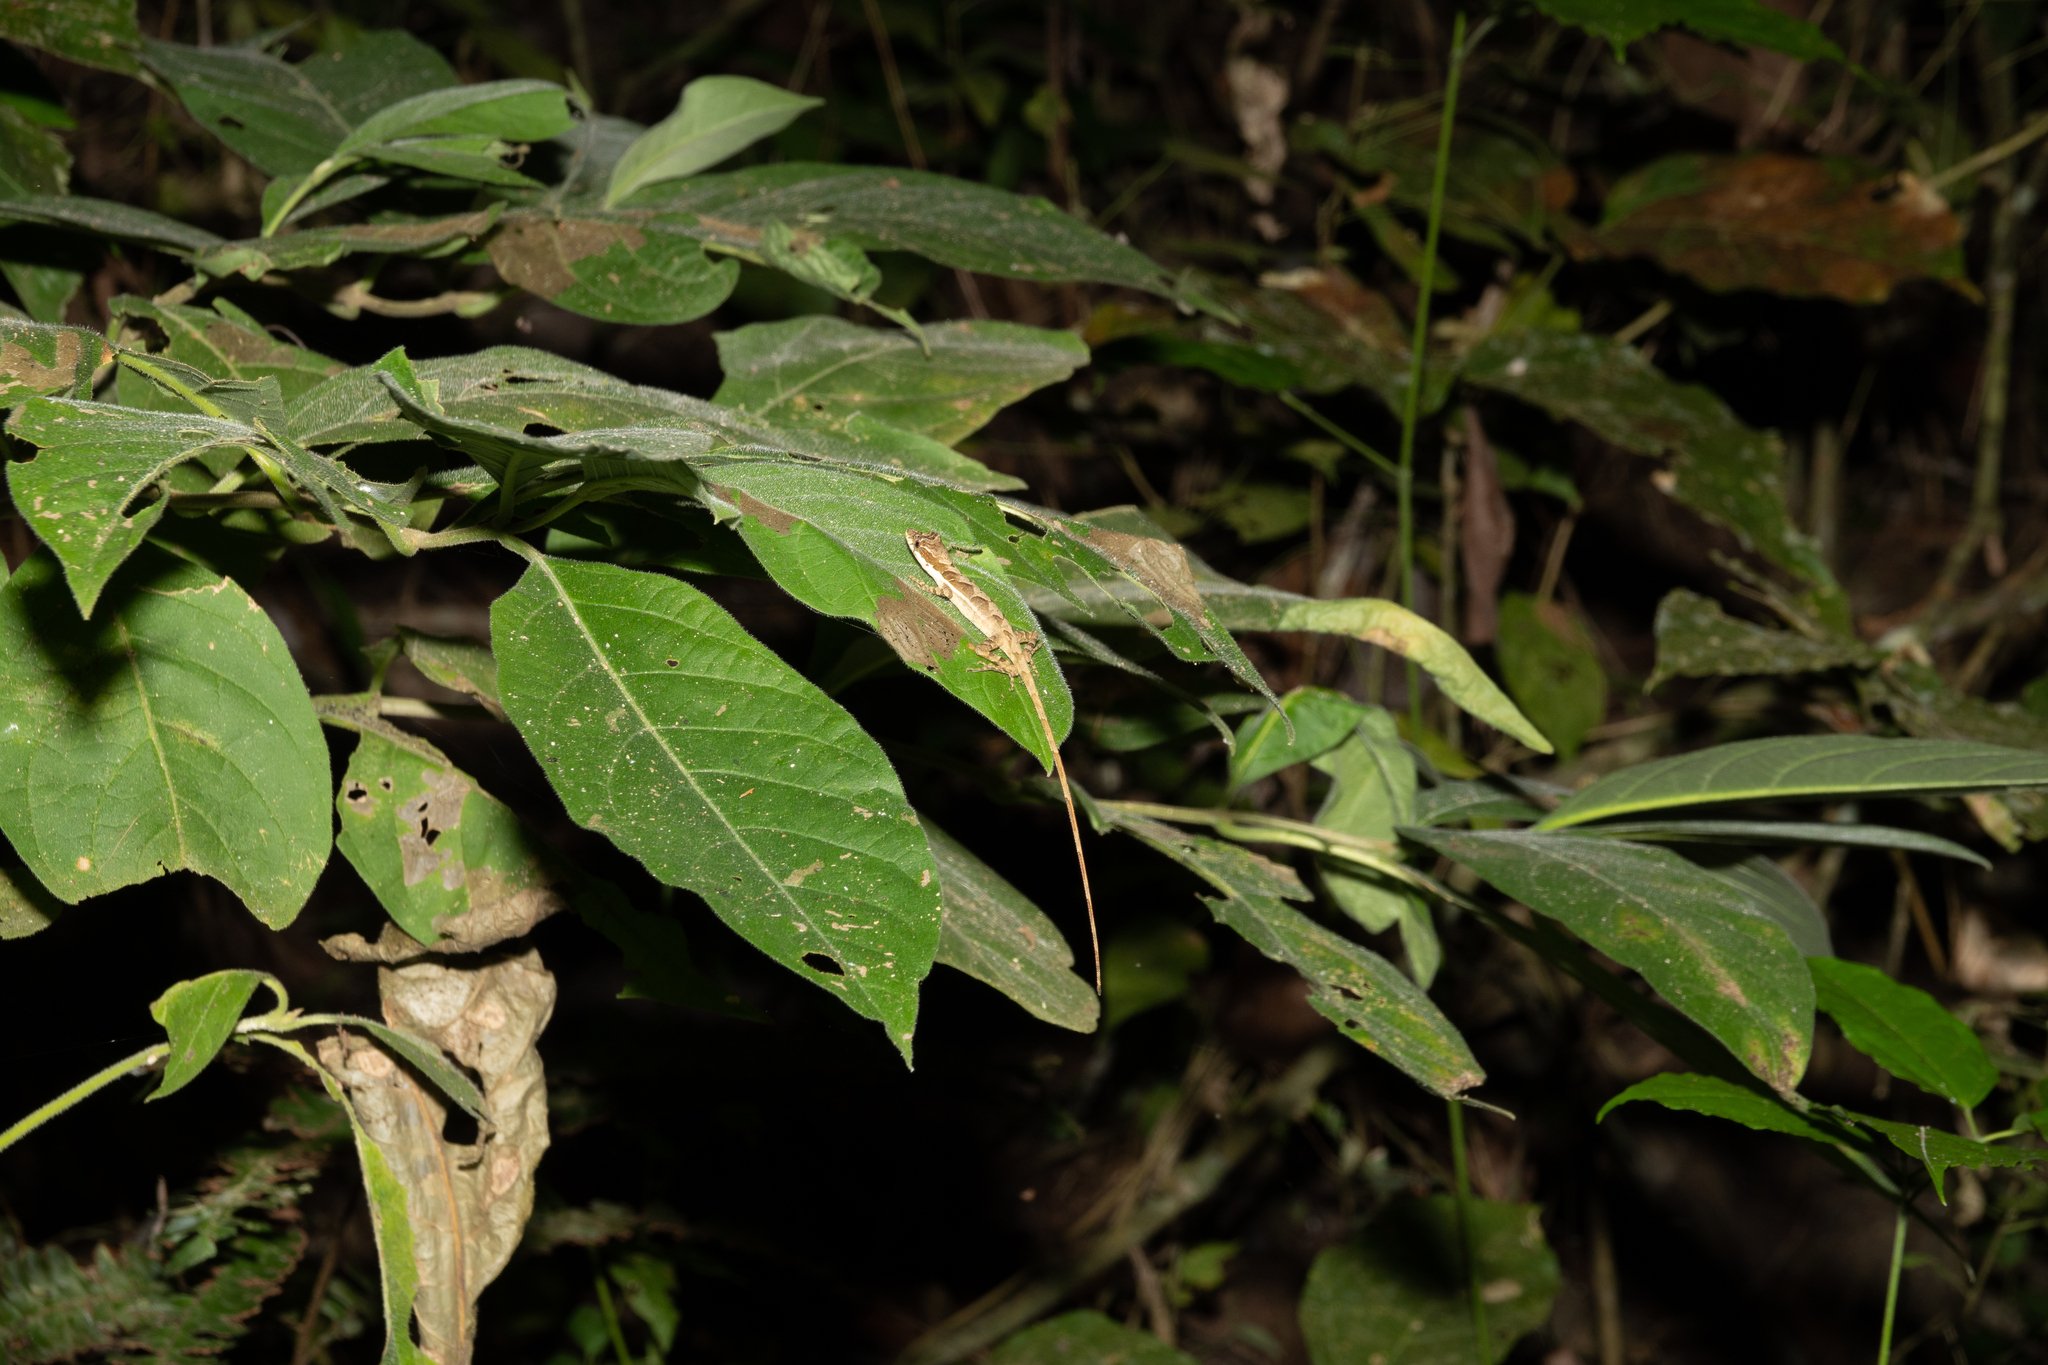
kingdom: Animalia
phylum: Chordata
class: Squamata
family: Dactyloidae
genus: Anolis
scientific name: Anolis binotatus
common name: Two-marked anole
